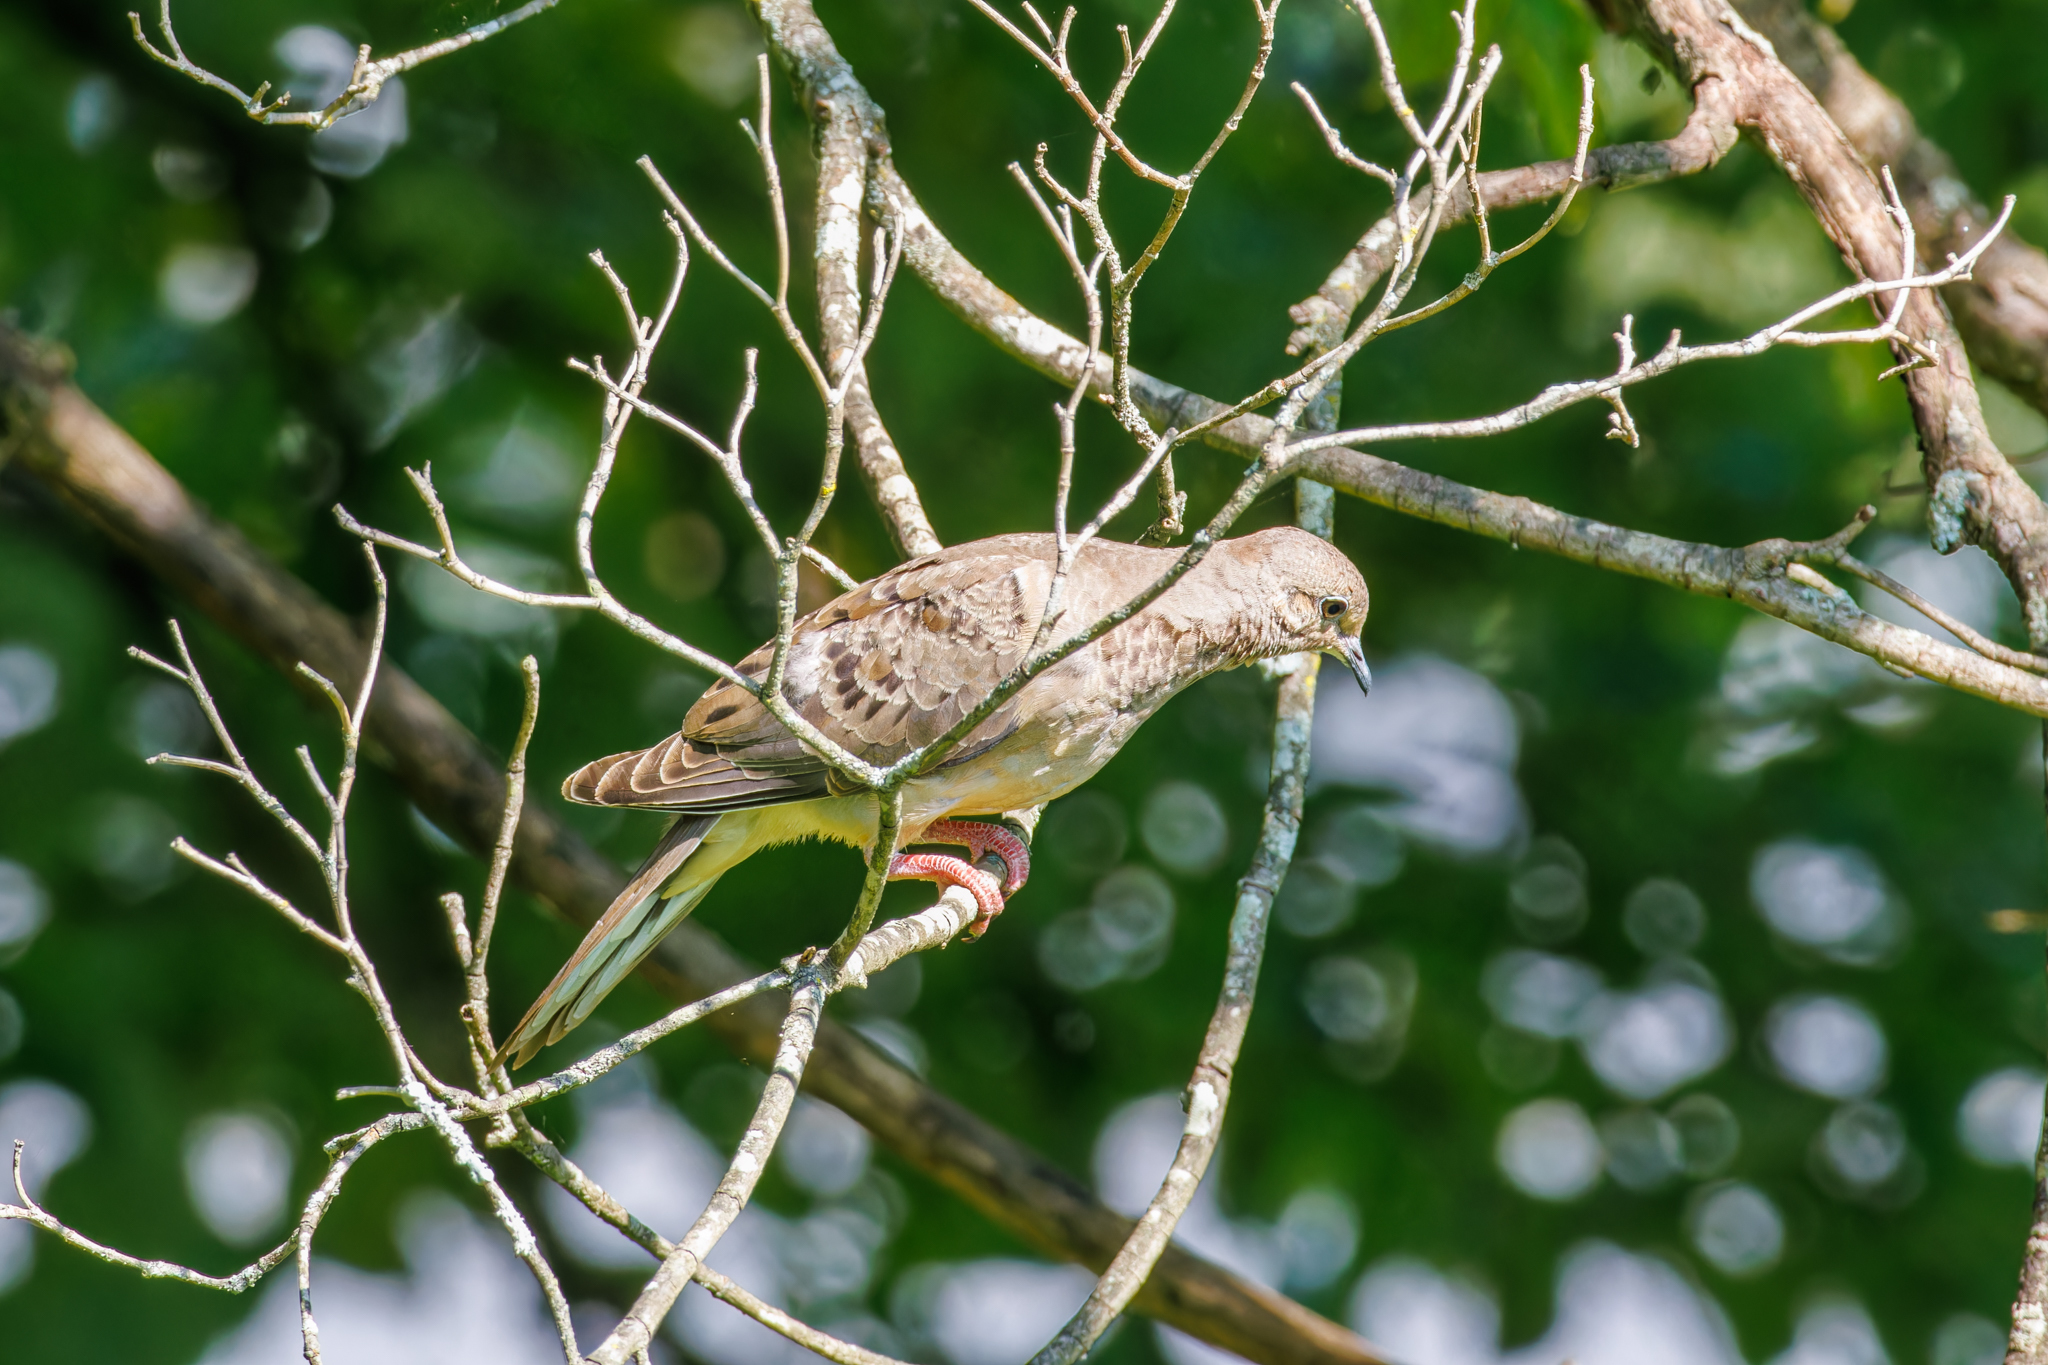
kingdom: Animalia
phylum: Chordata
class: Aves
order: Columbiformes
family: Columbidae
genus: Zenaida
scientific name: Zenaida macroura
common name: Mourning dove
